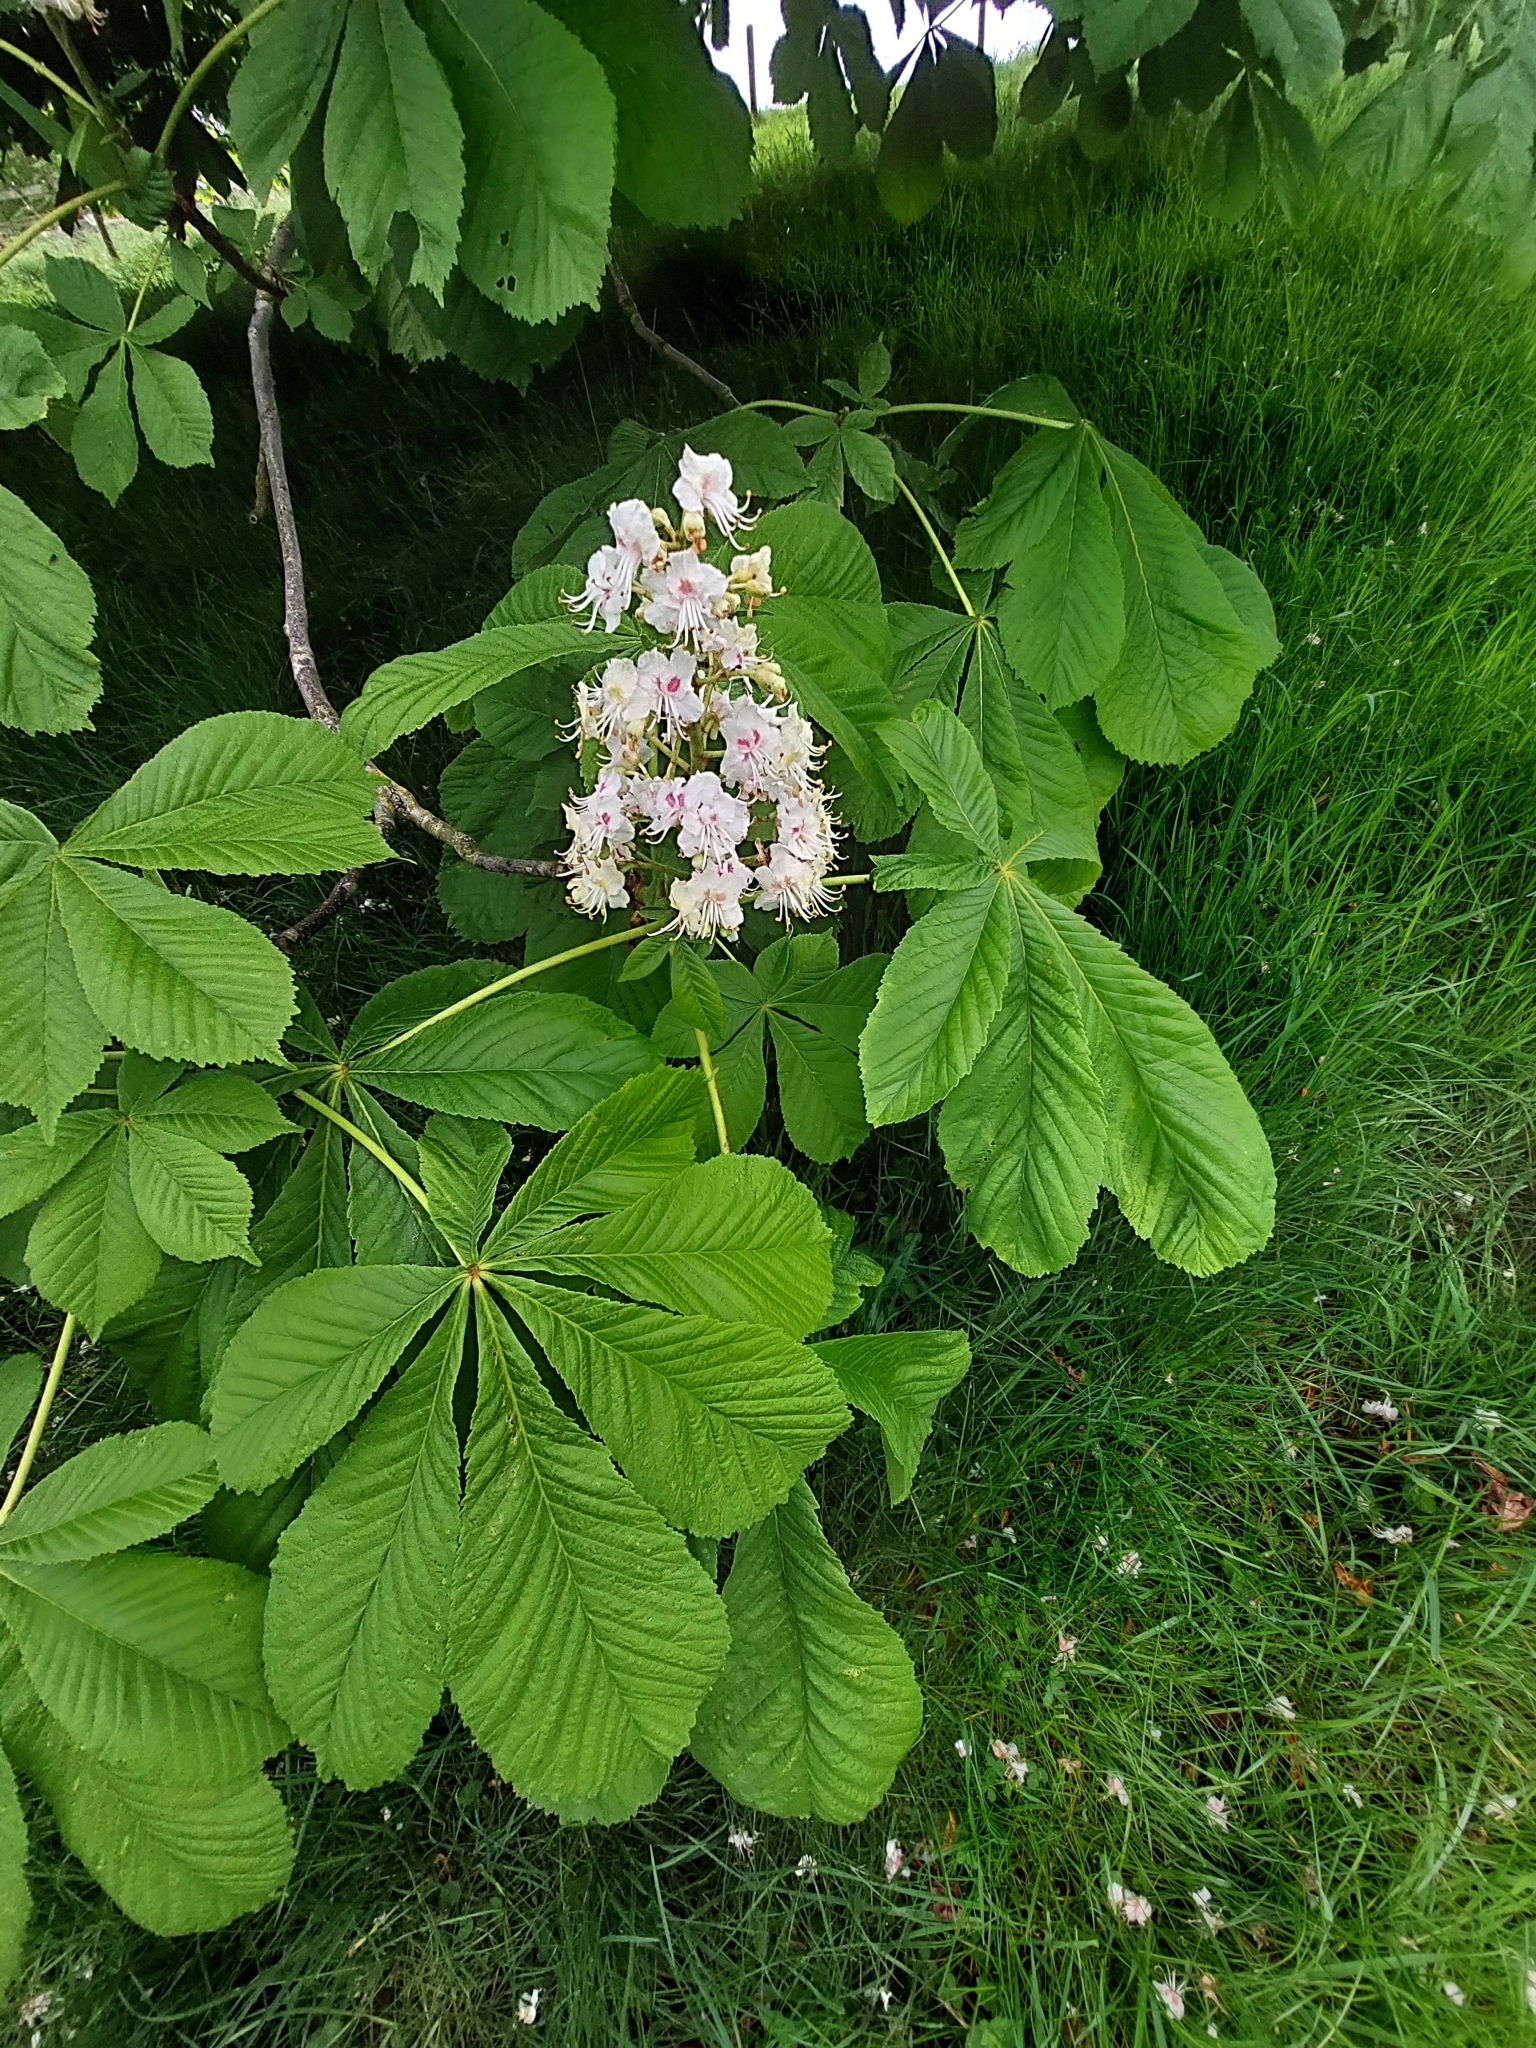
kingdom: Plantae
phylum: Tracheophyta
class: Magnoliopsida
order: Sapindales
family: Sapindaceae
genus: Aesculus
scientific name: Aesculus hippocastanum
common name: Horse-chestnut
